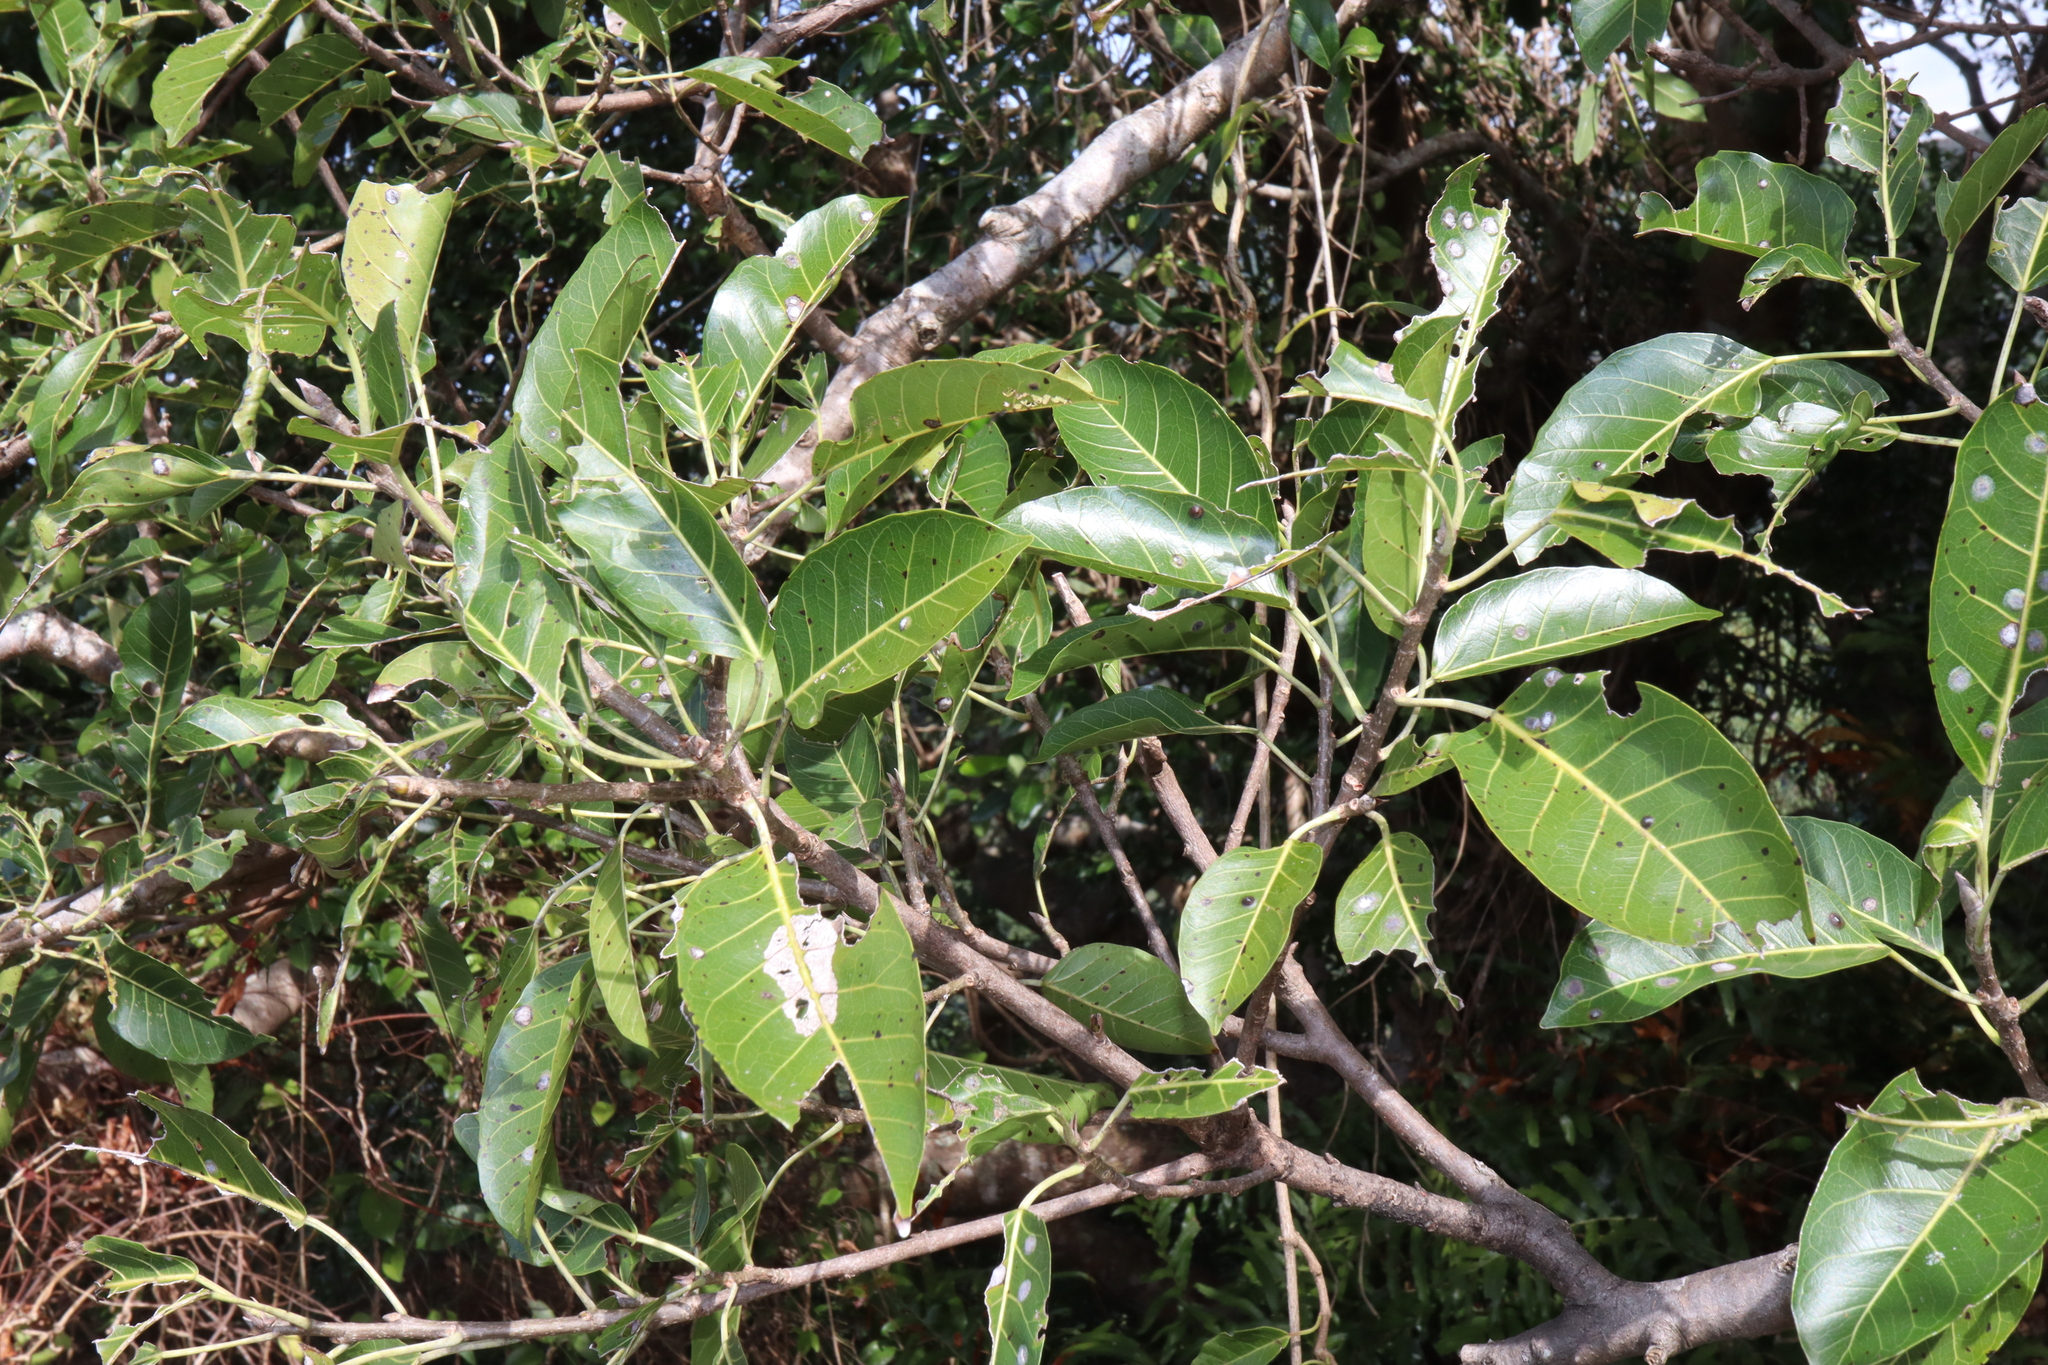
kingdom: Plantae
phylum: Tracheophyta
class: Magnoliopsida
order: Rosales
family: Moraceae
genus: Ficus
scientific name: Ficus virens
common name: Spotted fig
